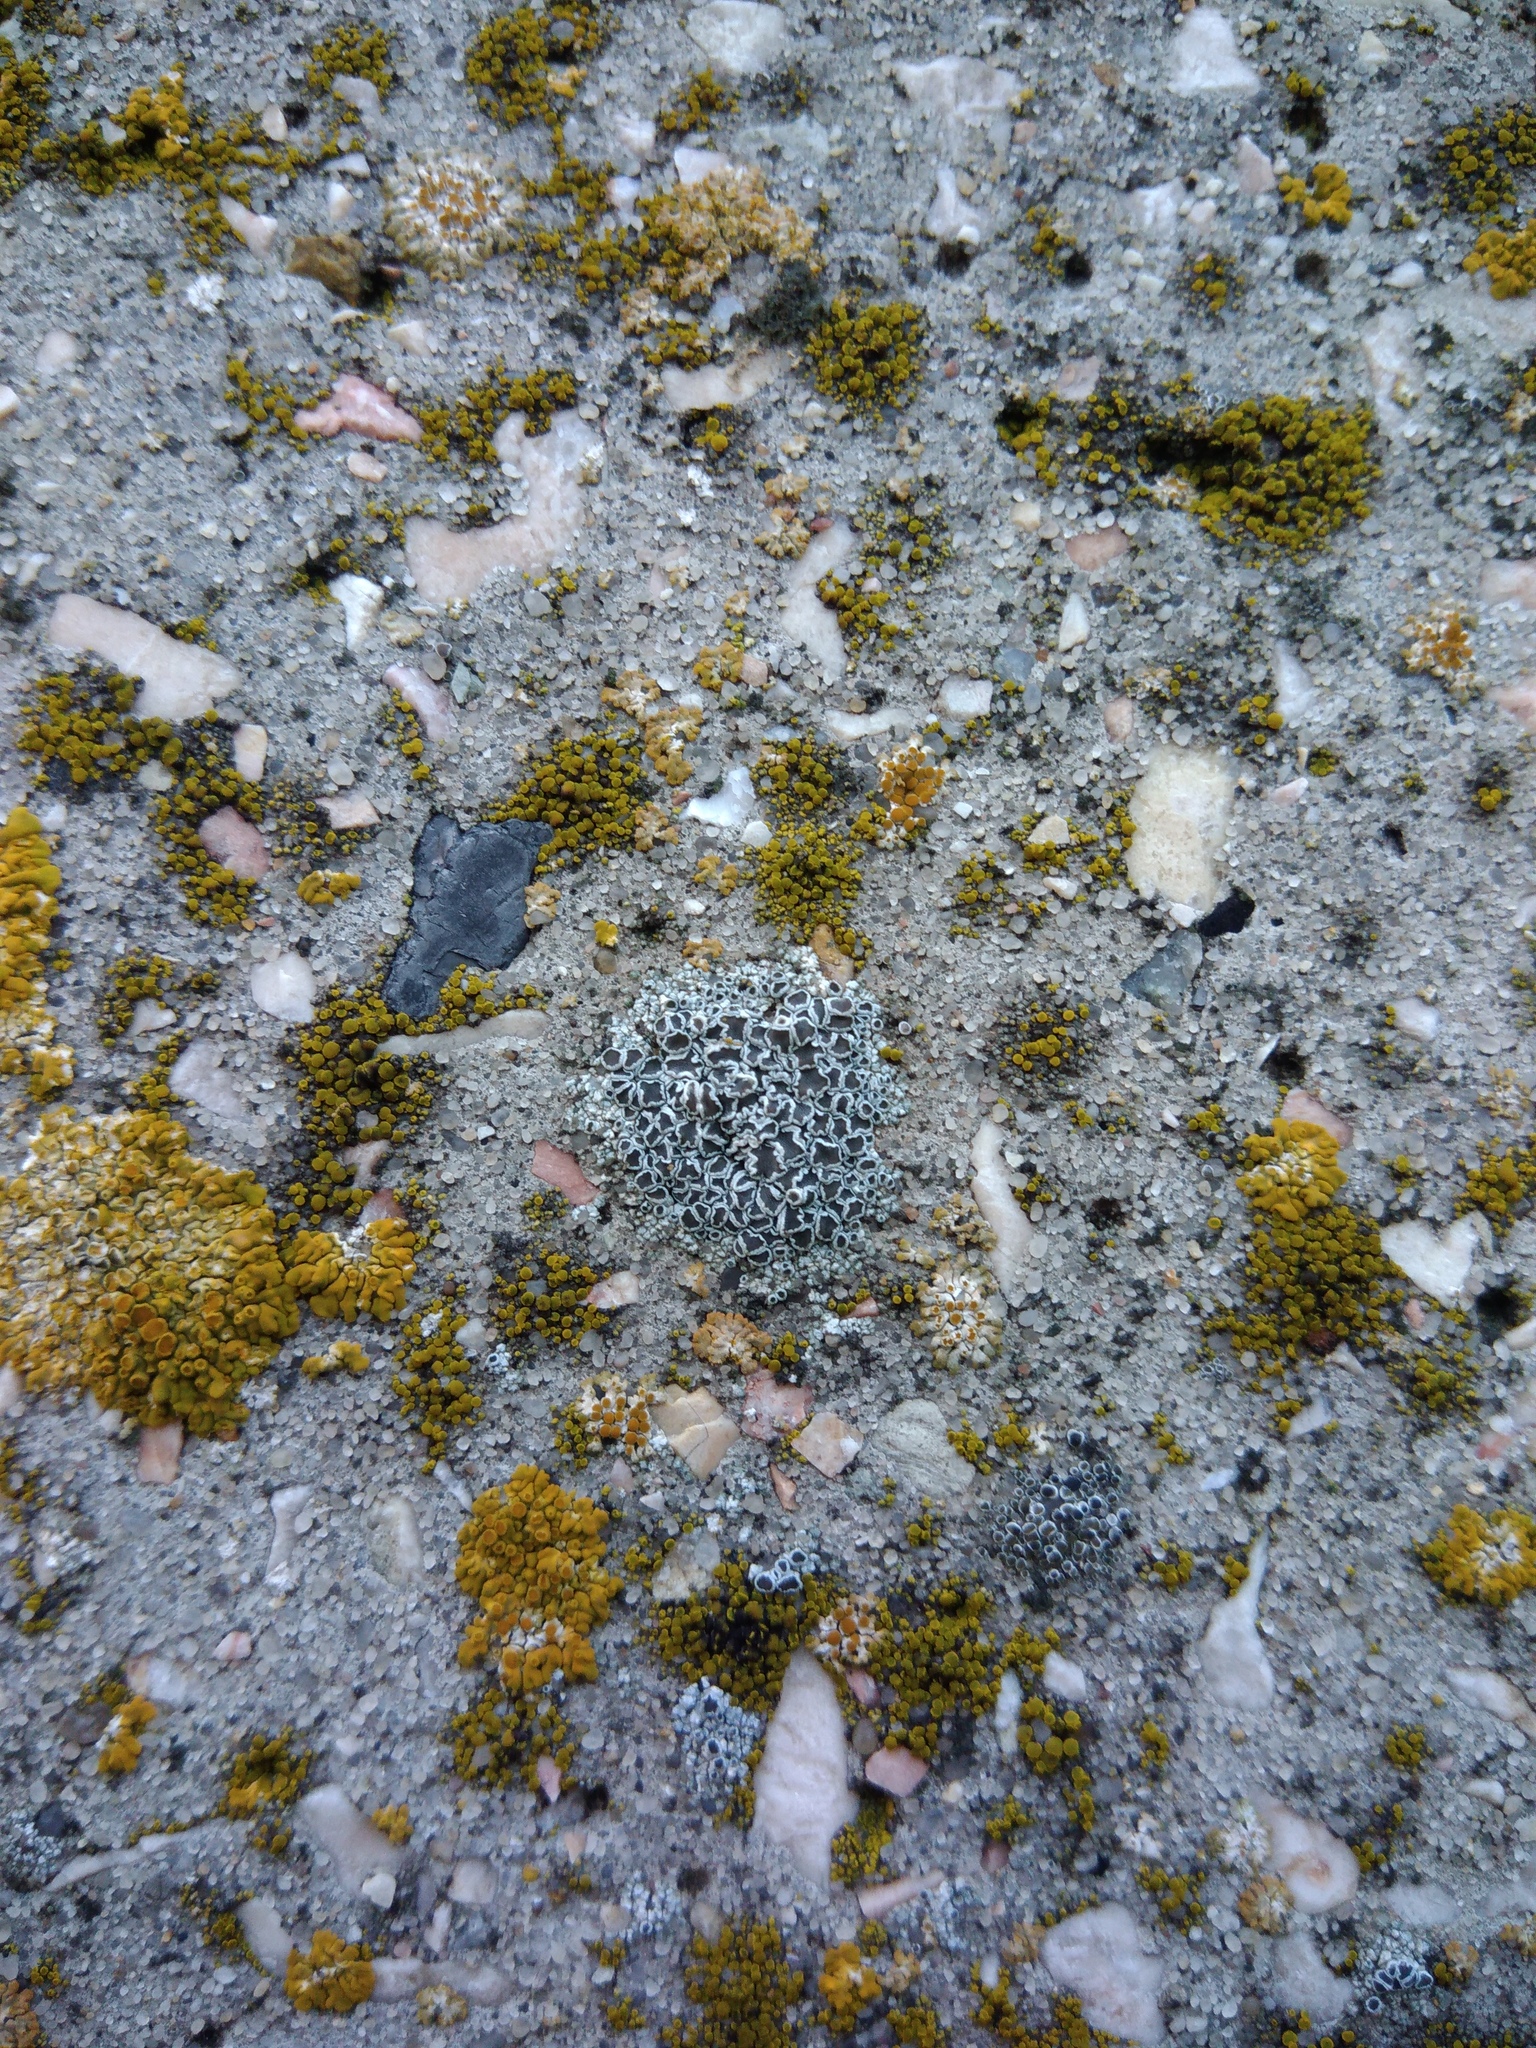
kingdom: Fungi
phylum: Ascomycota
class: Lecanoromycetes
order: Lecanorales
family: Lecanoraceae
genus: Polyozosia
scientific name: Polyozosia albescens
